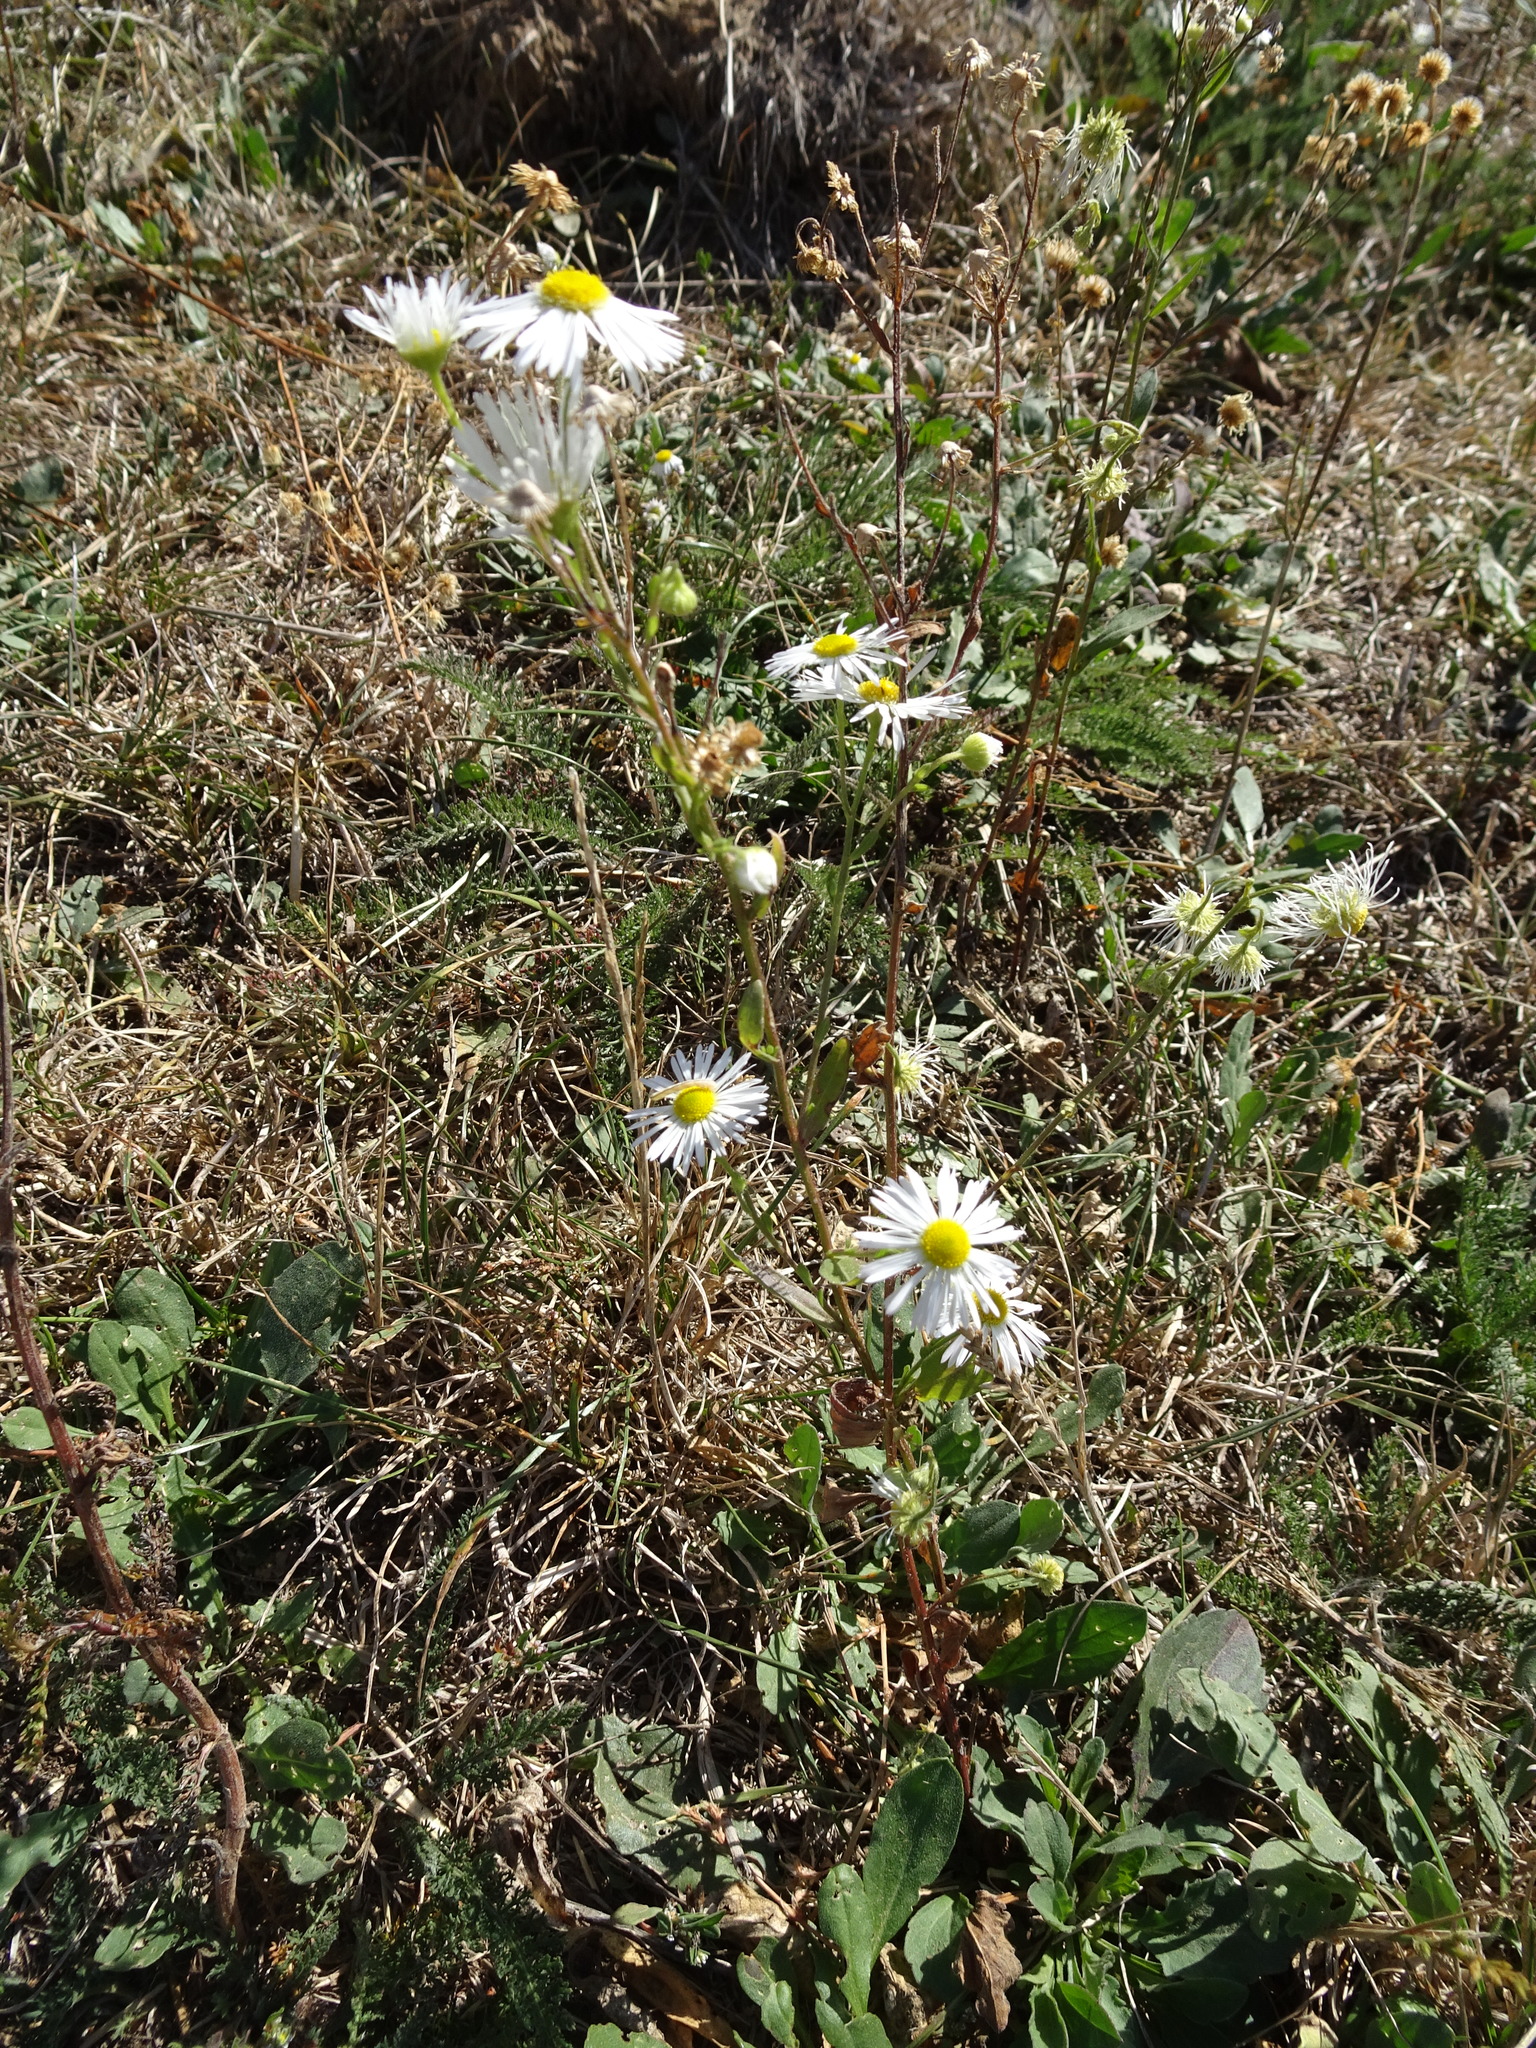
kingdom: Plantae
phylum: Tracheophyta
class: Magnoliopsida
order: Asterales
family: Asteraceae
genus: Erigeron
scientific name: Erigeron annuus
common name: Tall fleabane
